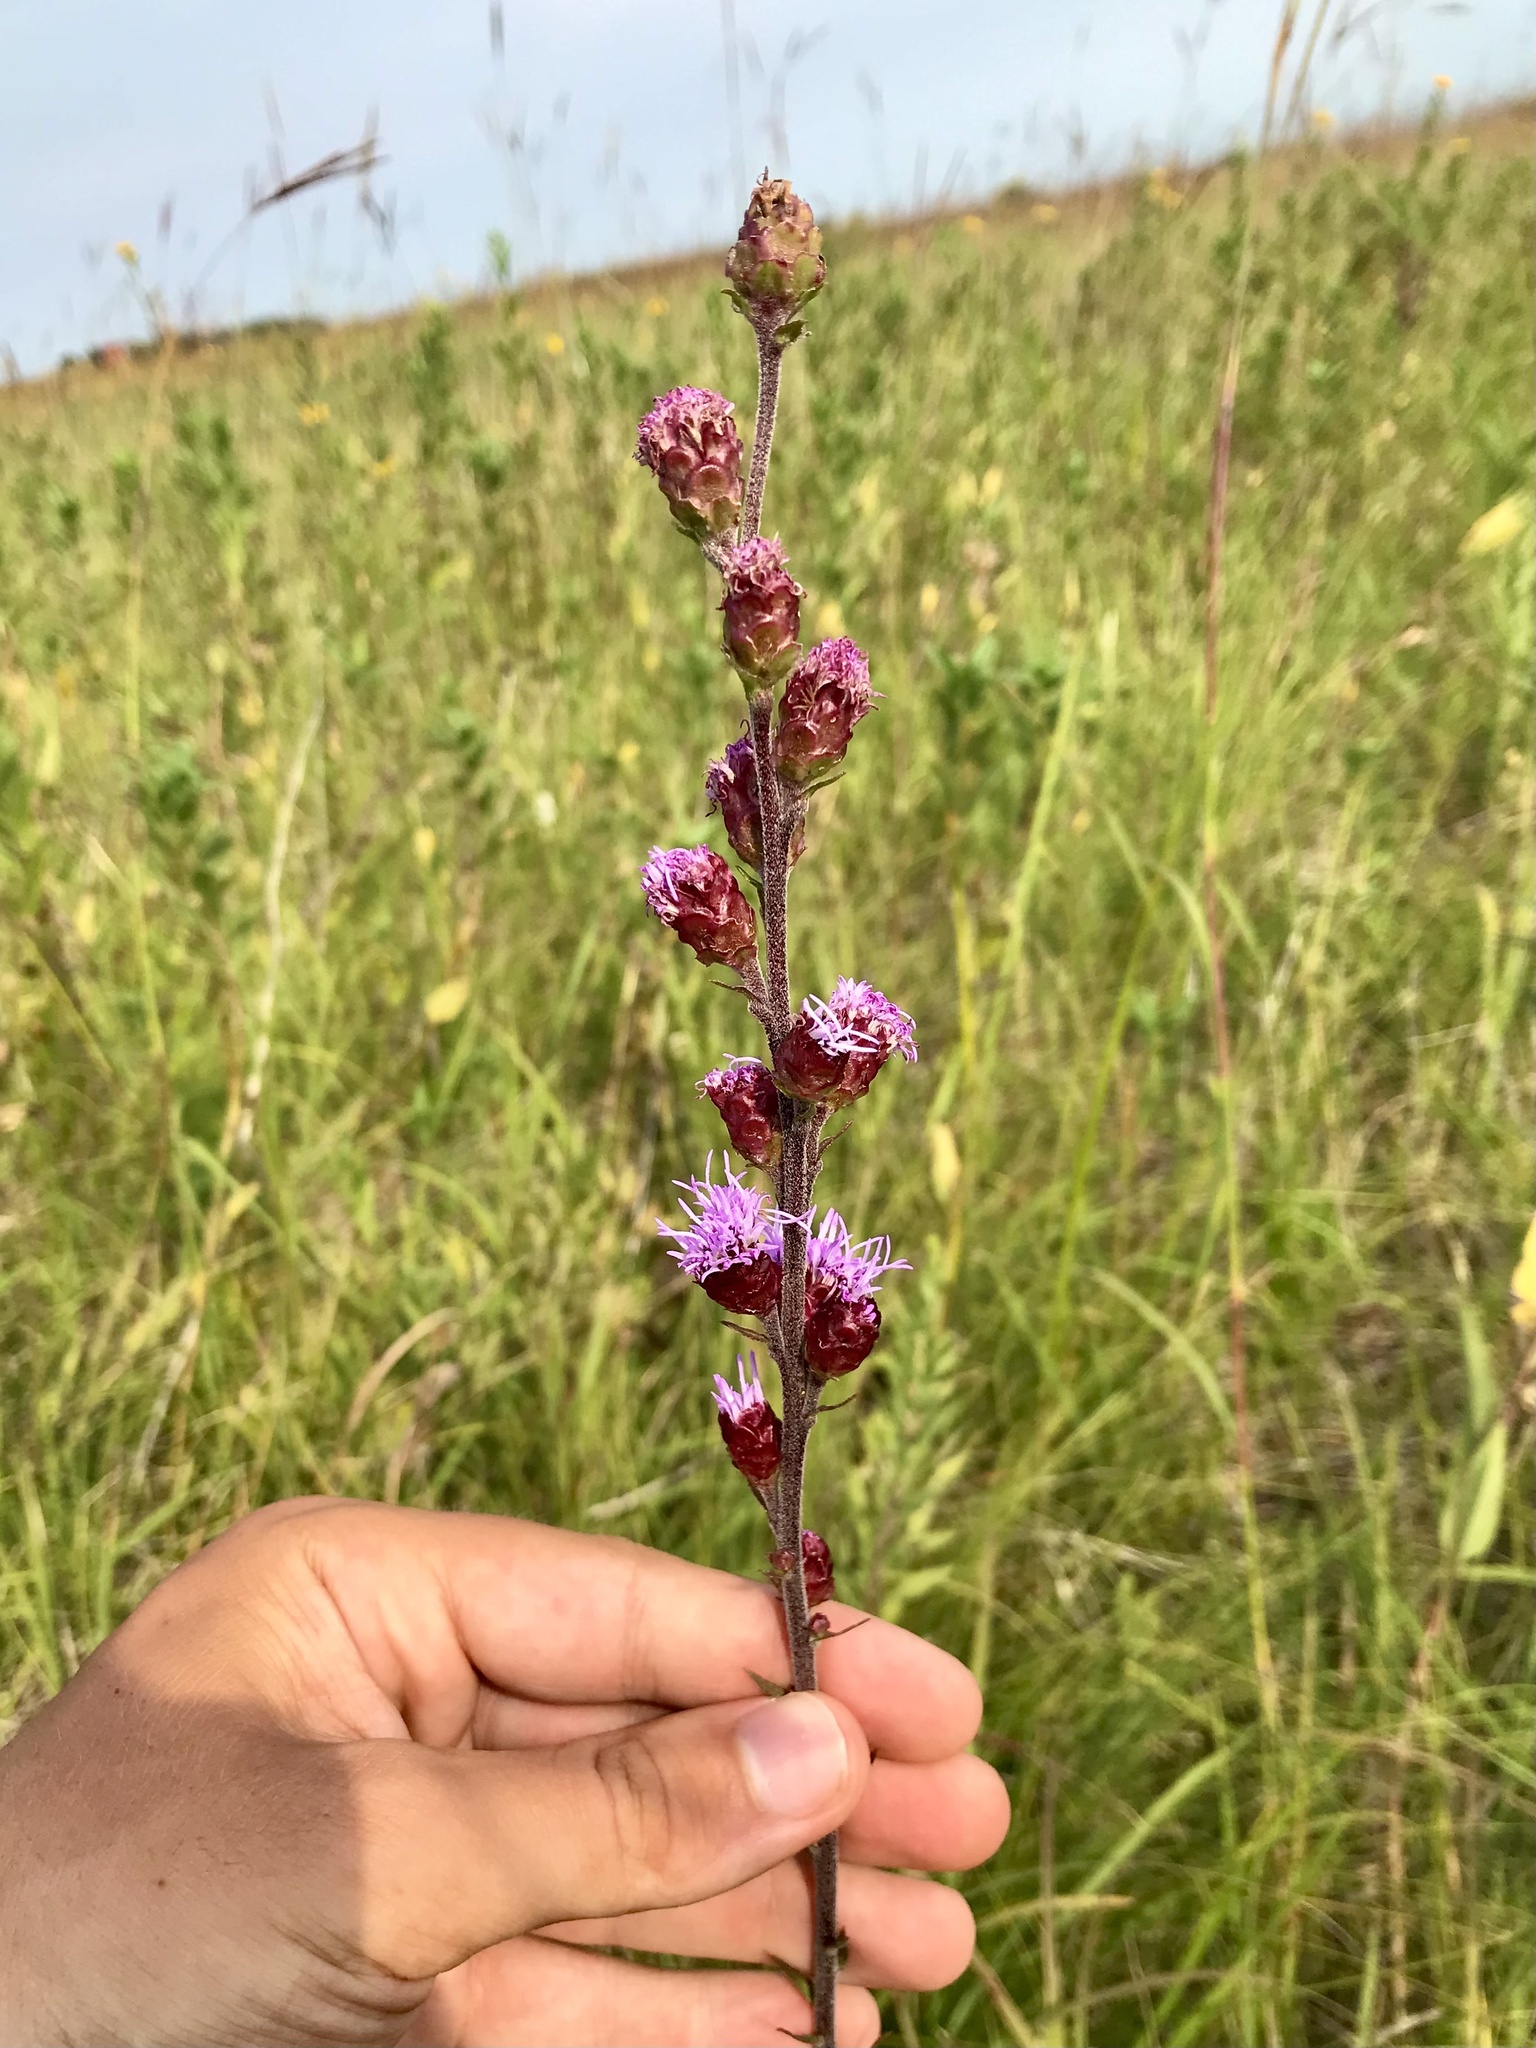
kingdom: Plantae
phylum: Tracheophyta
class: Magnoliopsida
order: Asterales
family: Asteraceae
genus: Liatris
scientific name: Liatris ligulistylis
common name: Northern plains gayfeather
